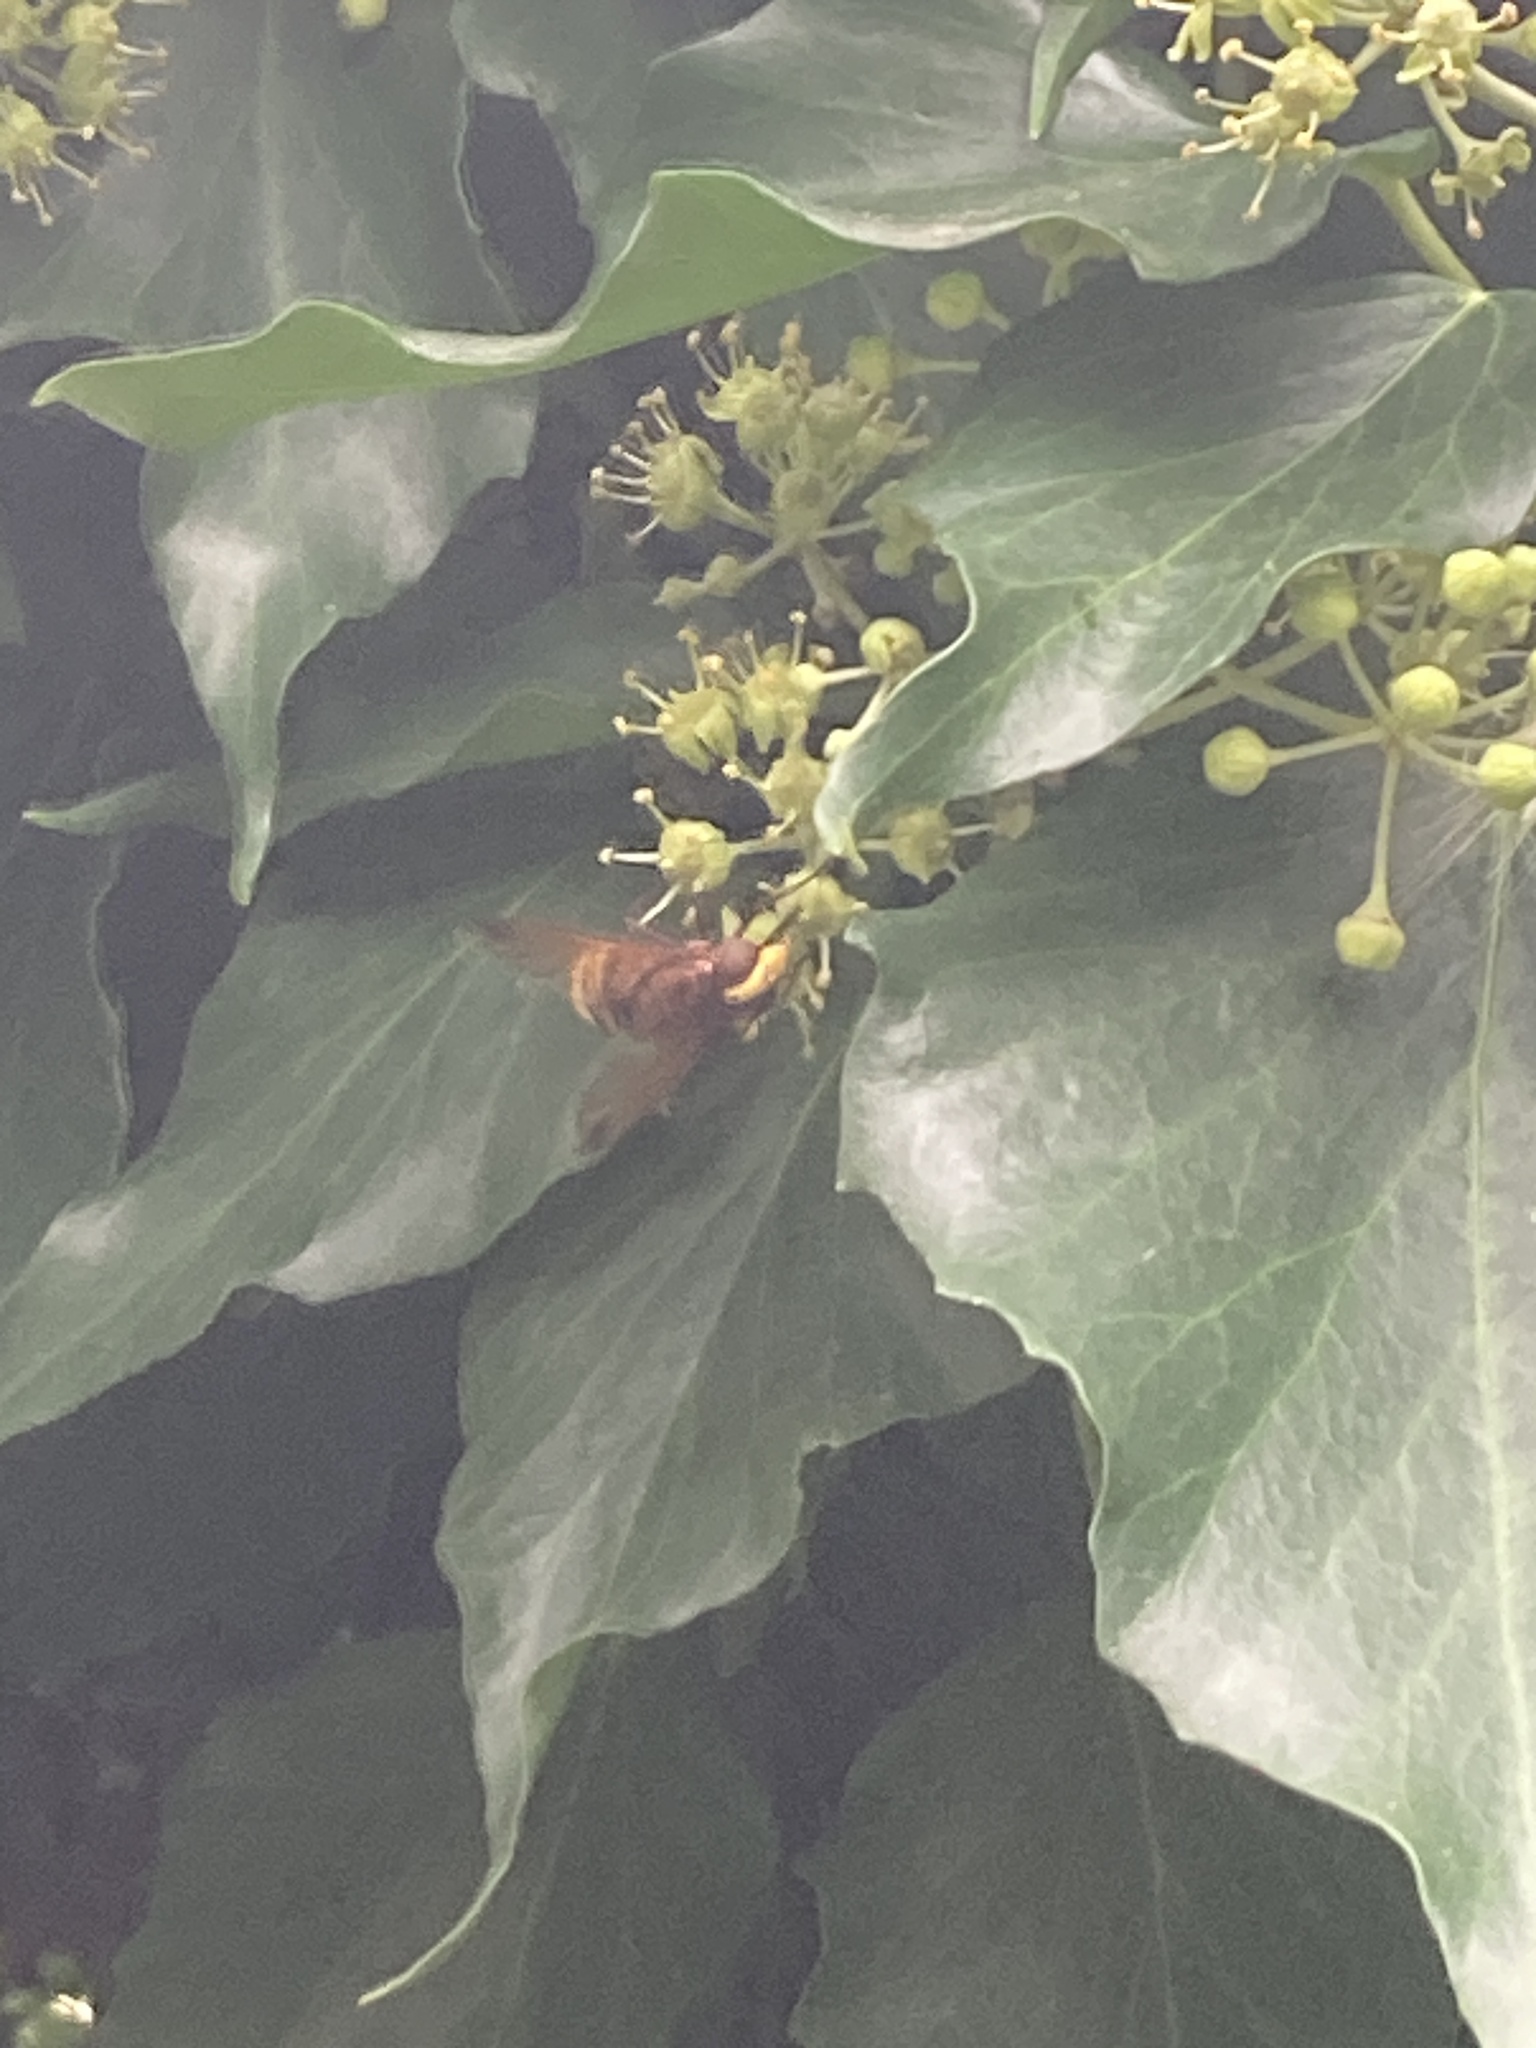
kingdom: Animalia
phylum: Arthropoda
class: Insecta
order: Diptera
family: Syrphidae
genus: Volucella
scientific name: Volucella zonaria
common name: Hornet hoverfly
